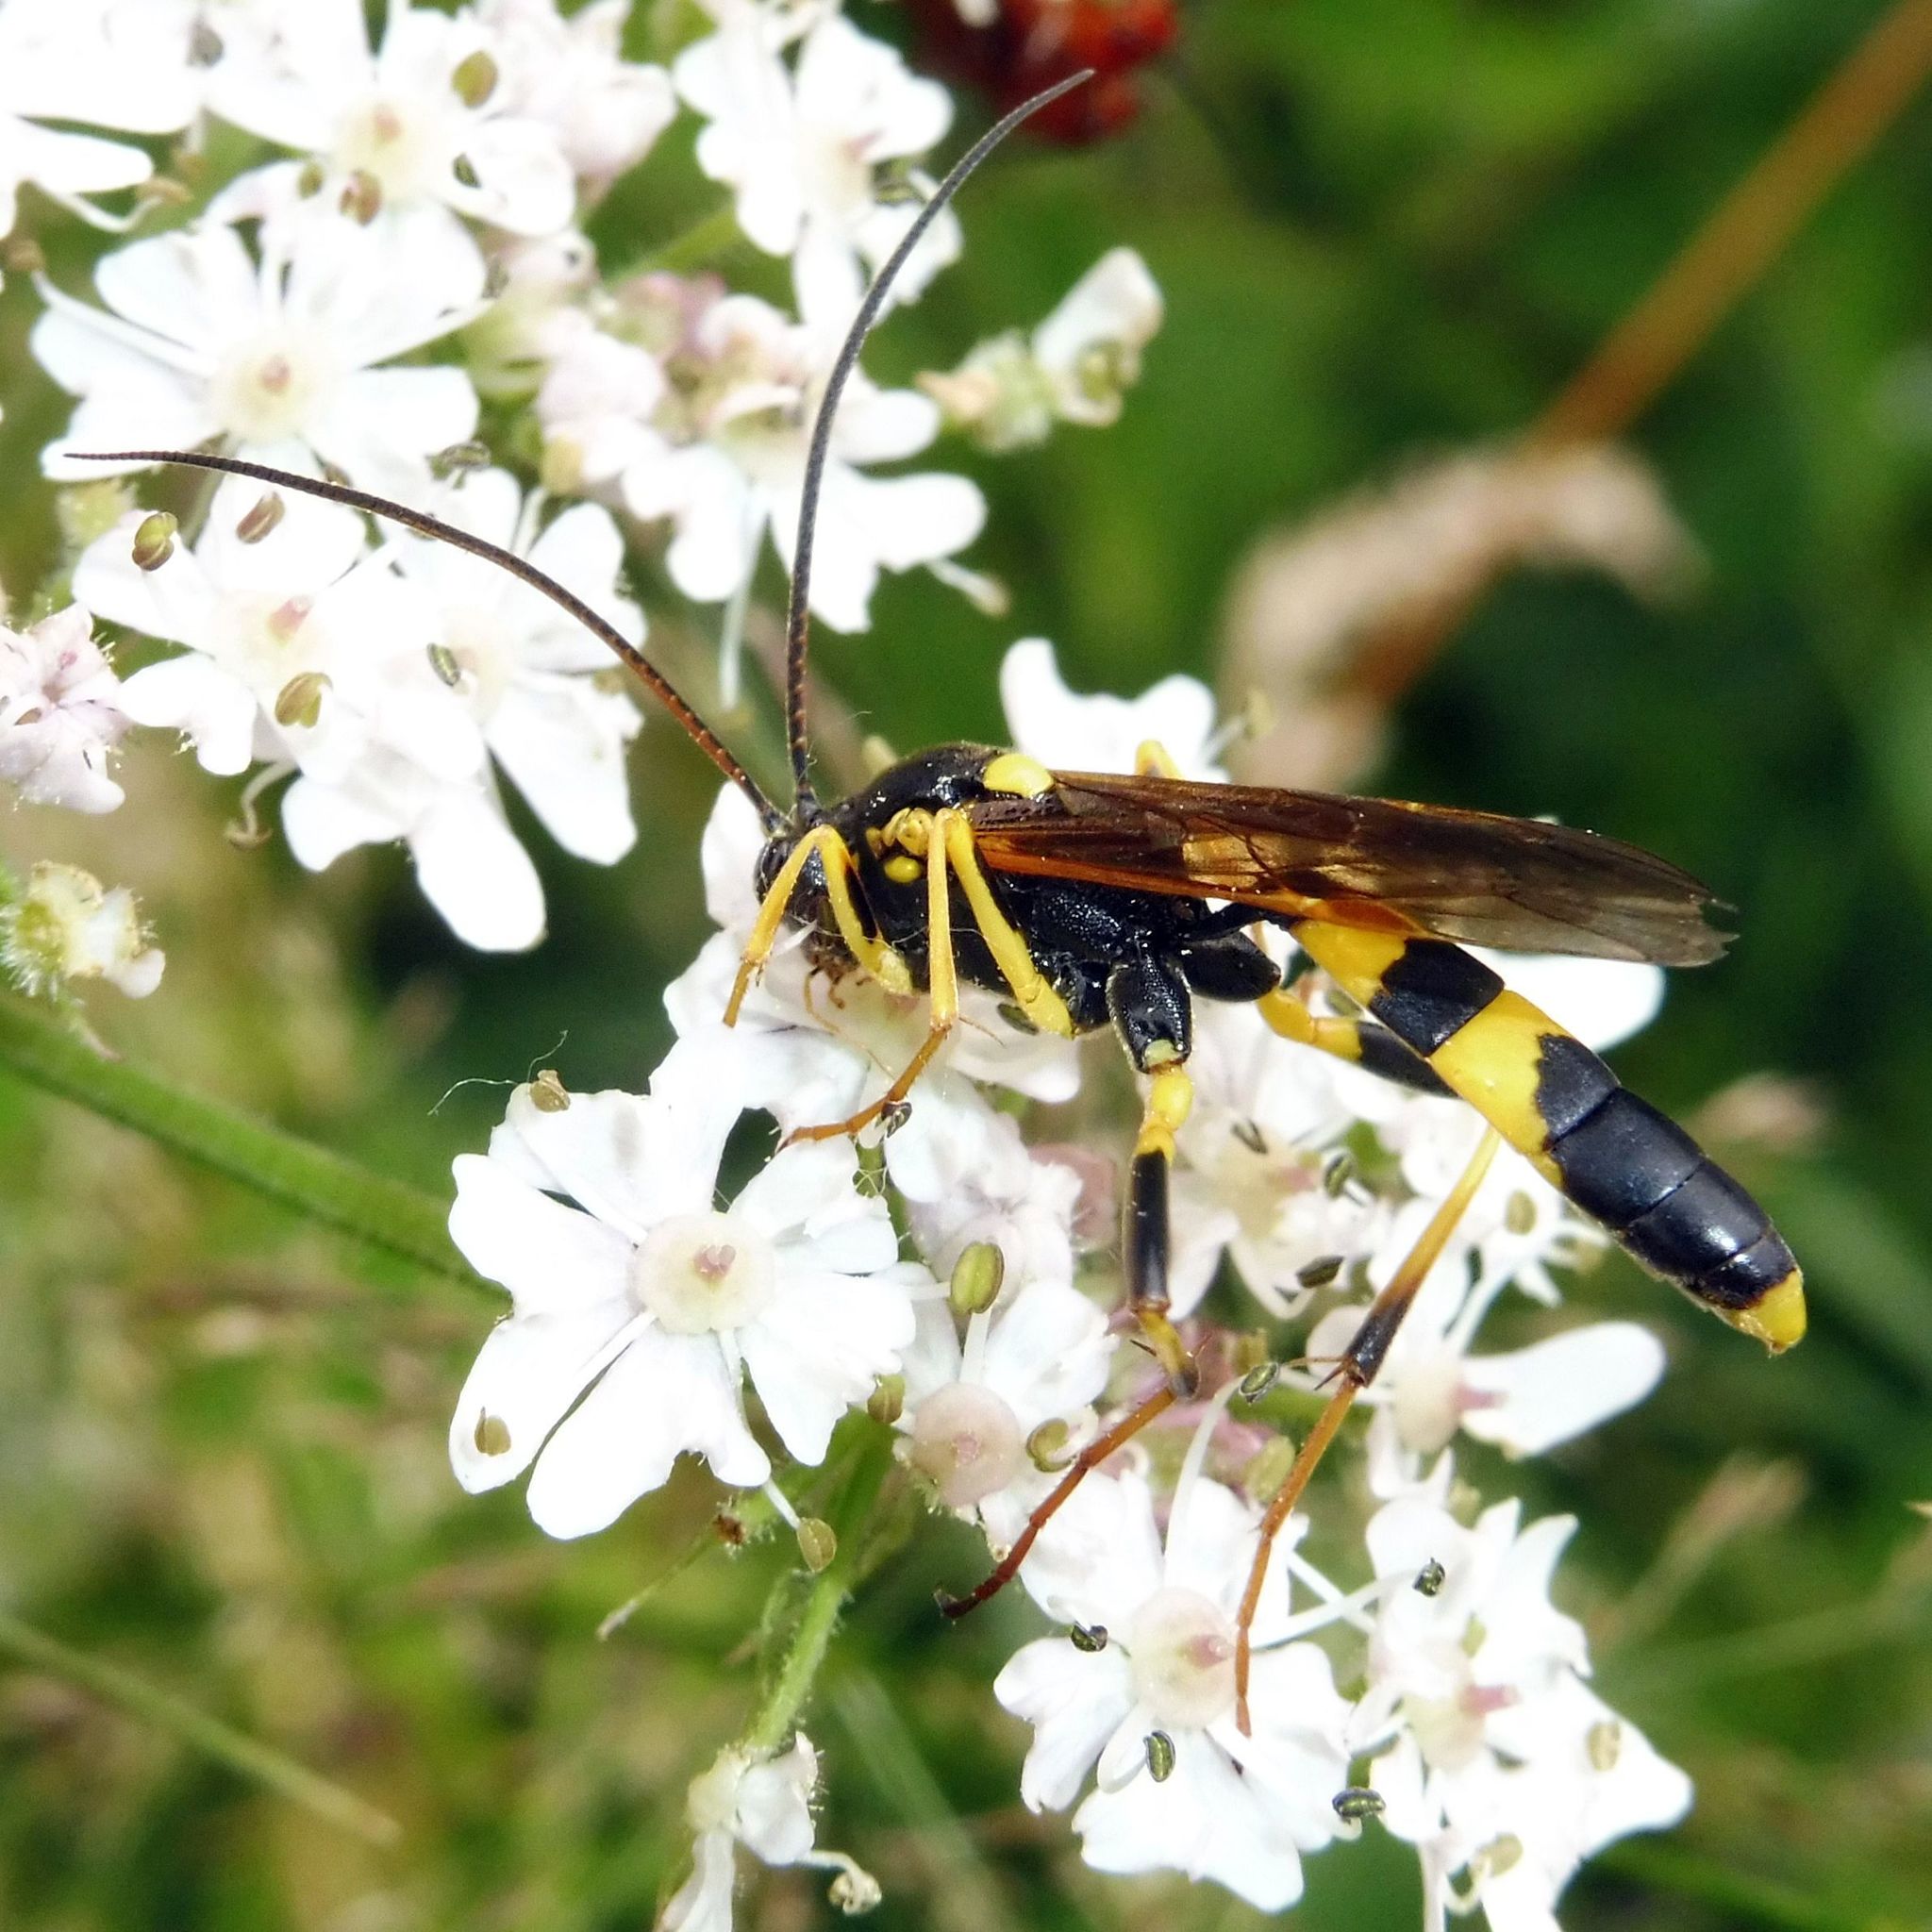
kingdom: Animalia
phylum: Arthropoda
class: Insecta
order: Hymenoptera
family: Ichneumonidae
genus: Amblyteles
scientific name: Amblyteles armatorius
